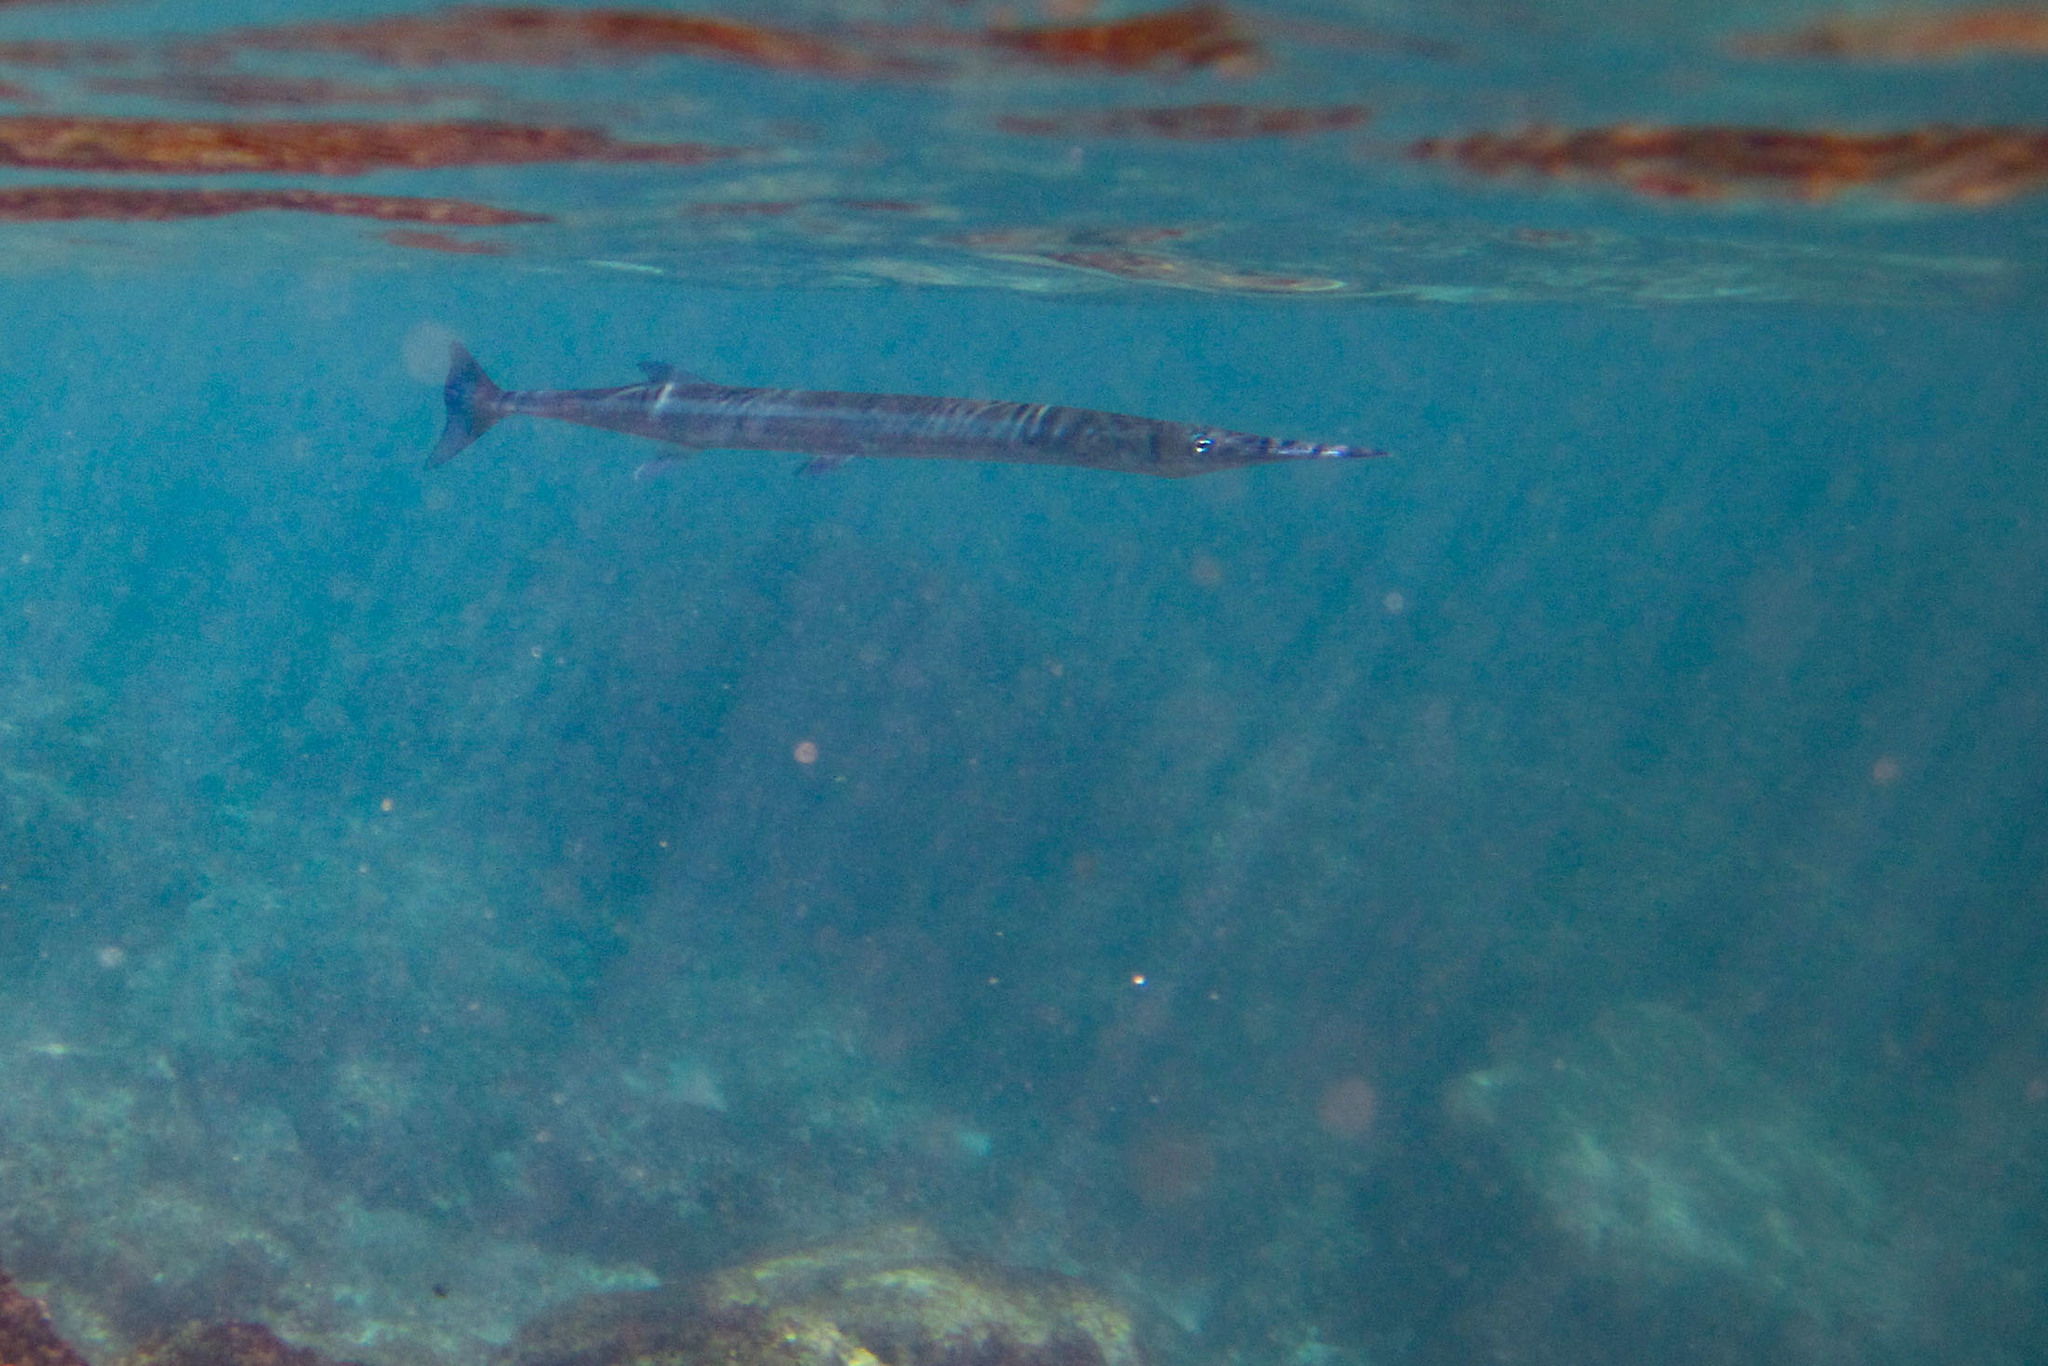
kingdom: Animalia
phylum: Chordata
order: Beloniformes
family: Belonidae
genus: Tylosurus
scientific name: Tylosurus fodiator
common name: Hound needlefish
